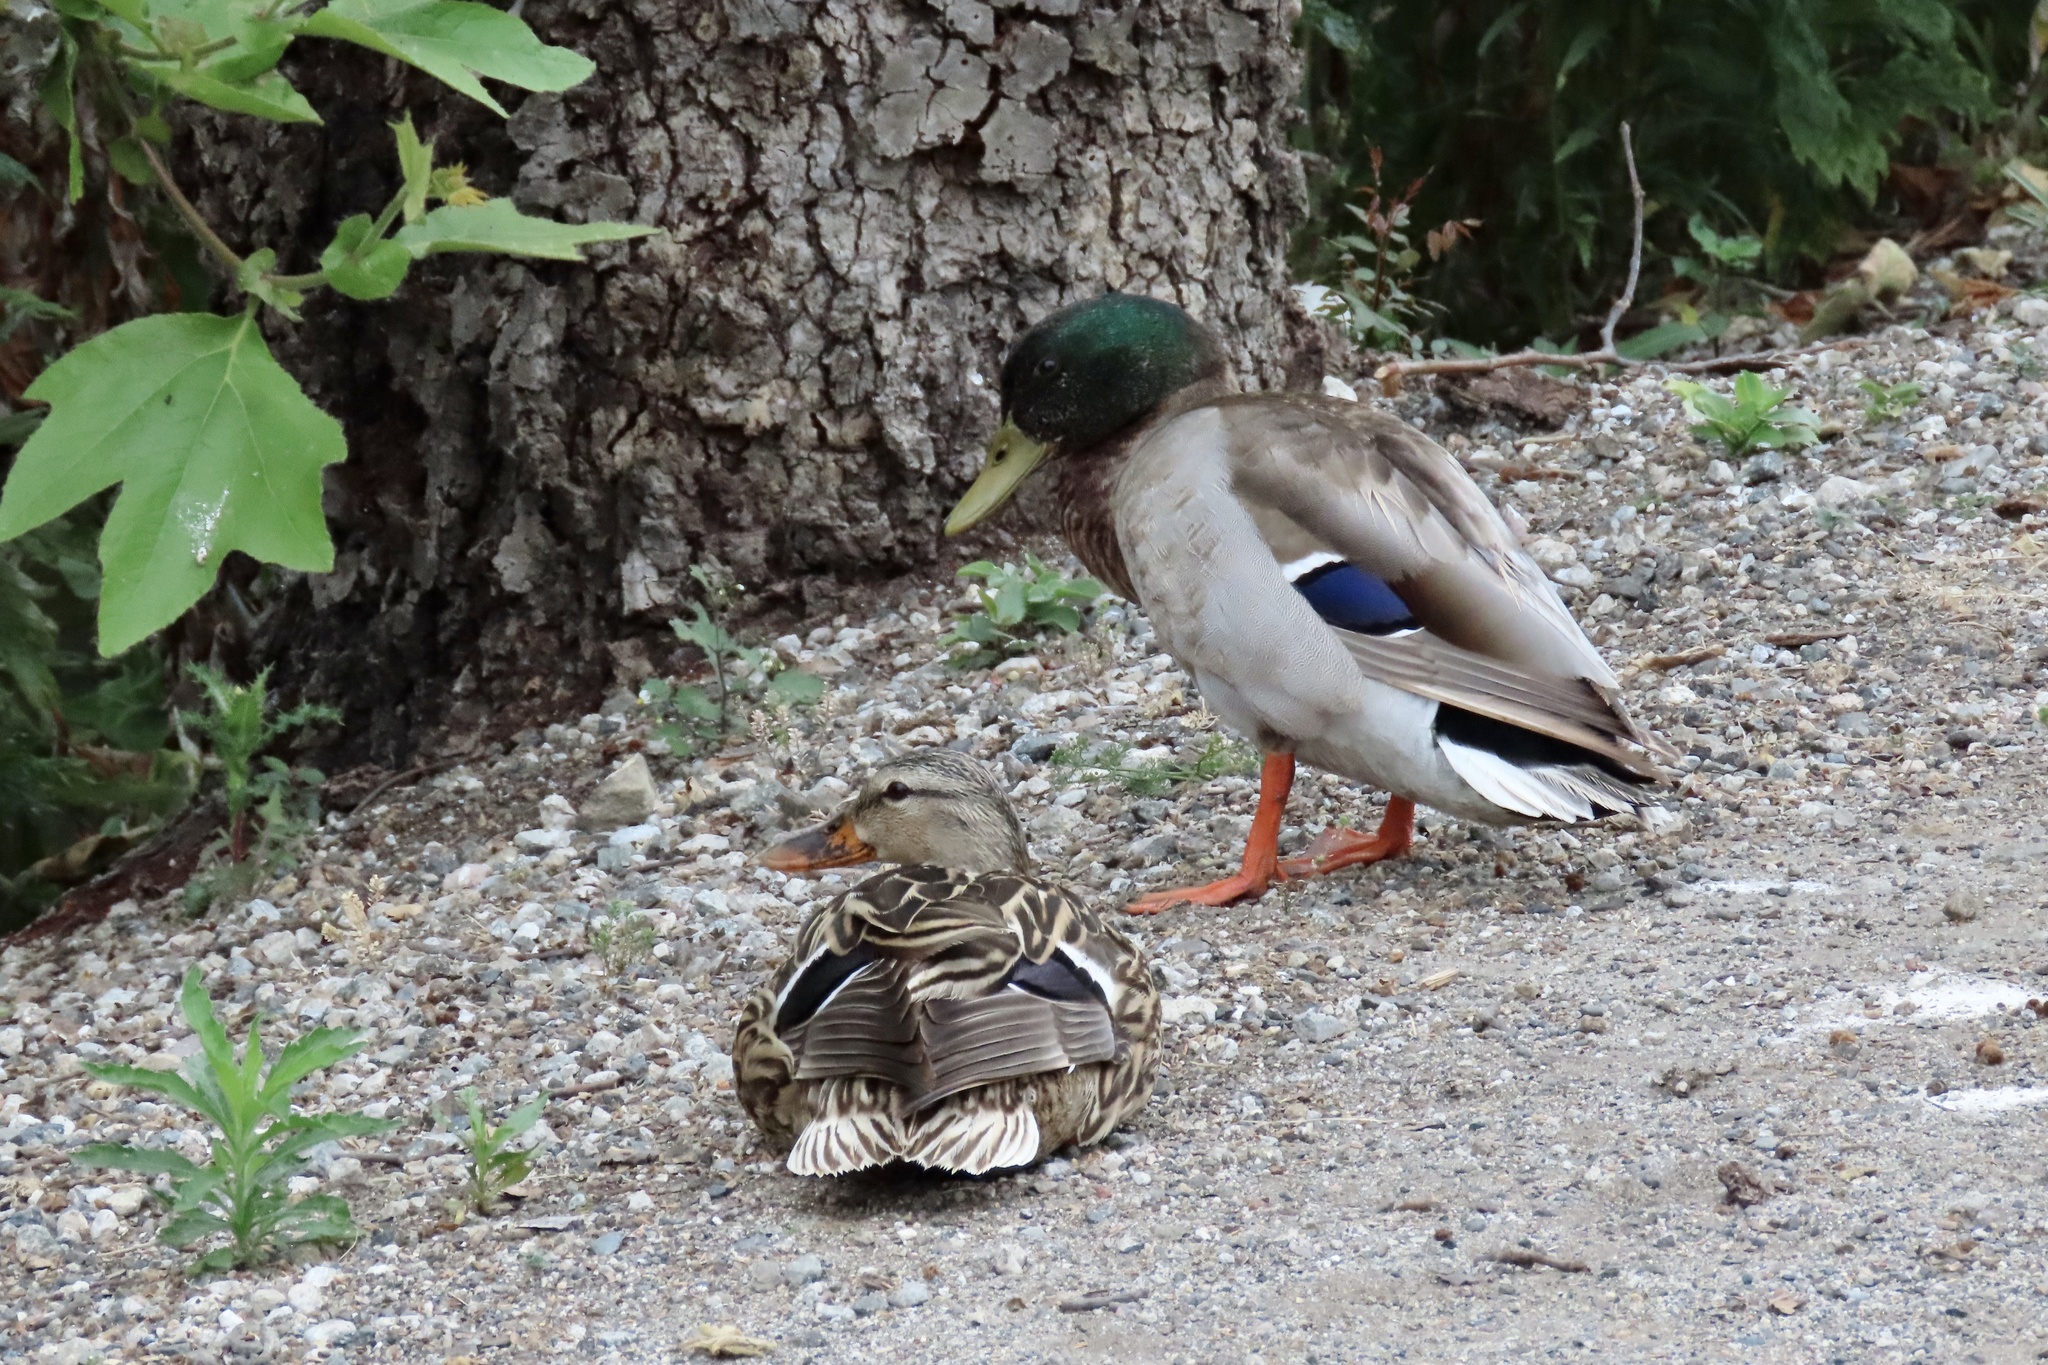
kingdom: Animalia
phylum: Chordata
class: Aves
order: Anseriformes
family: Anatidae
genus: Anas
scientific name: Anas platyrhynchos
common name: Mallard
